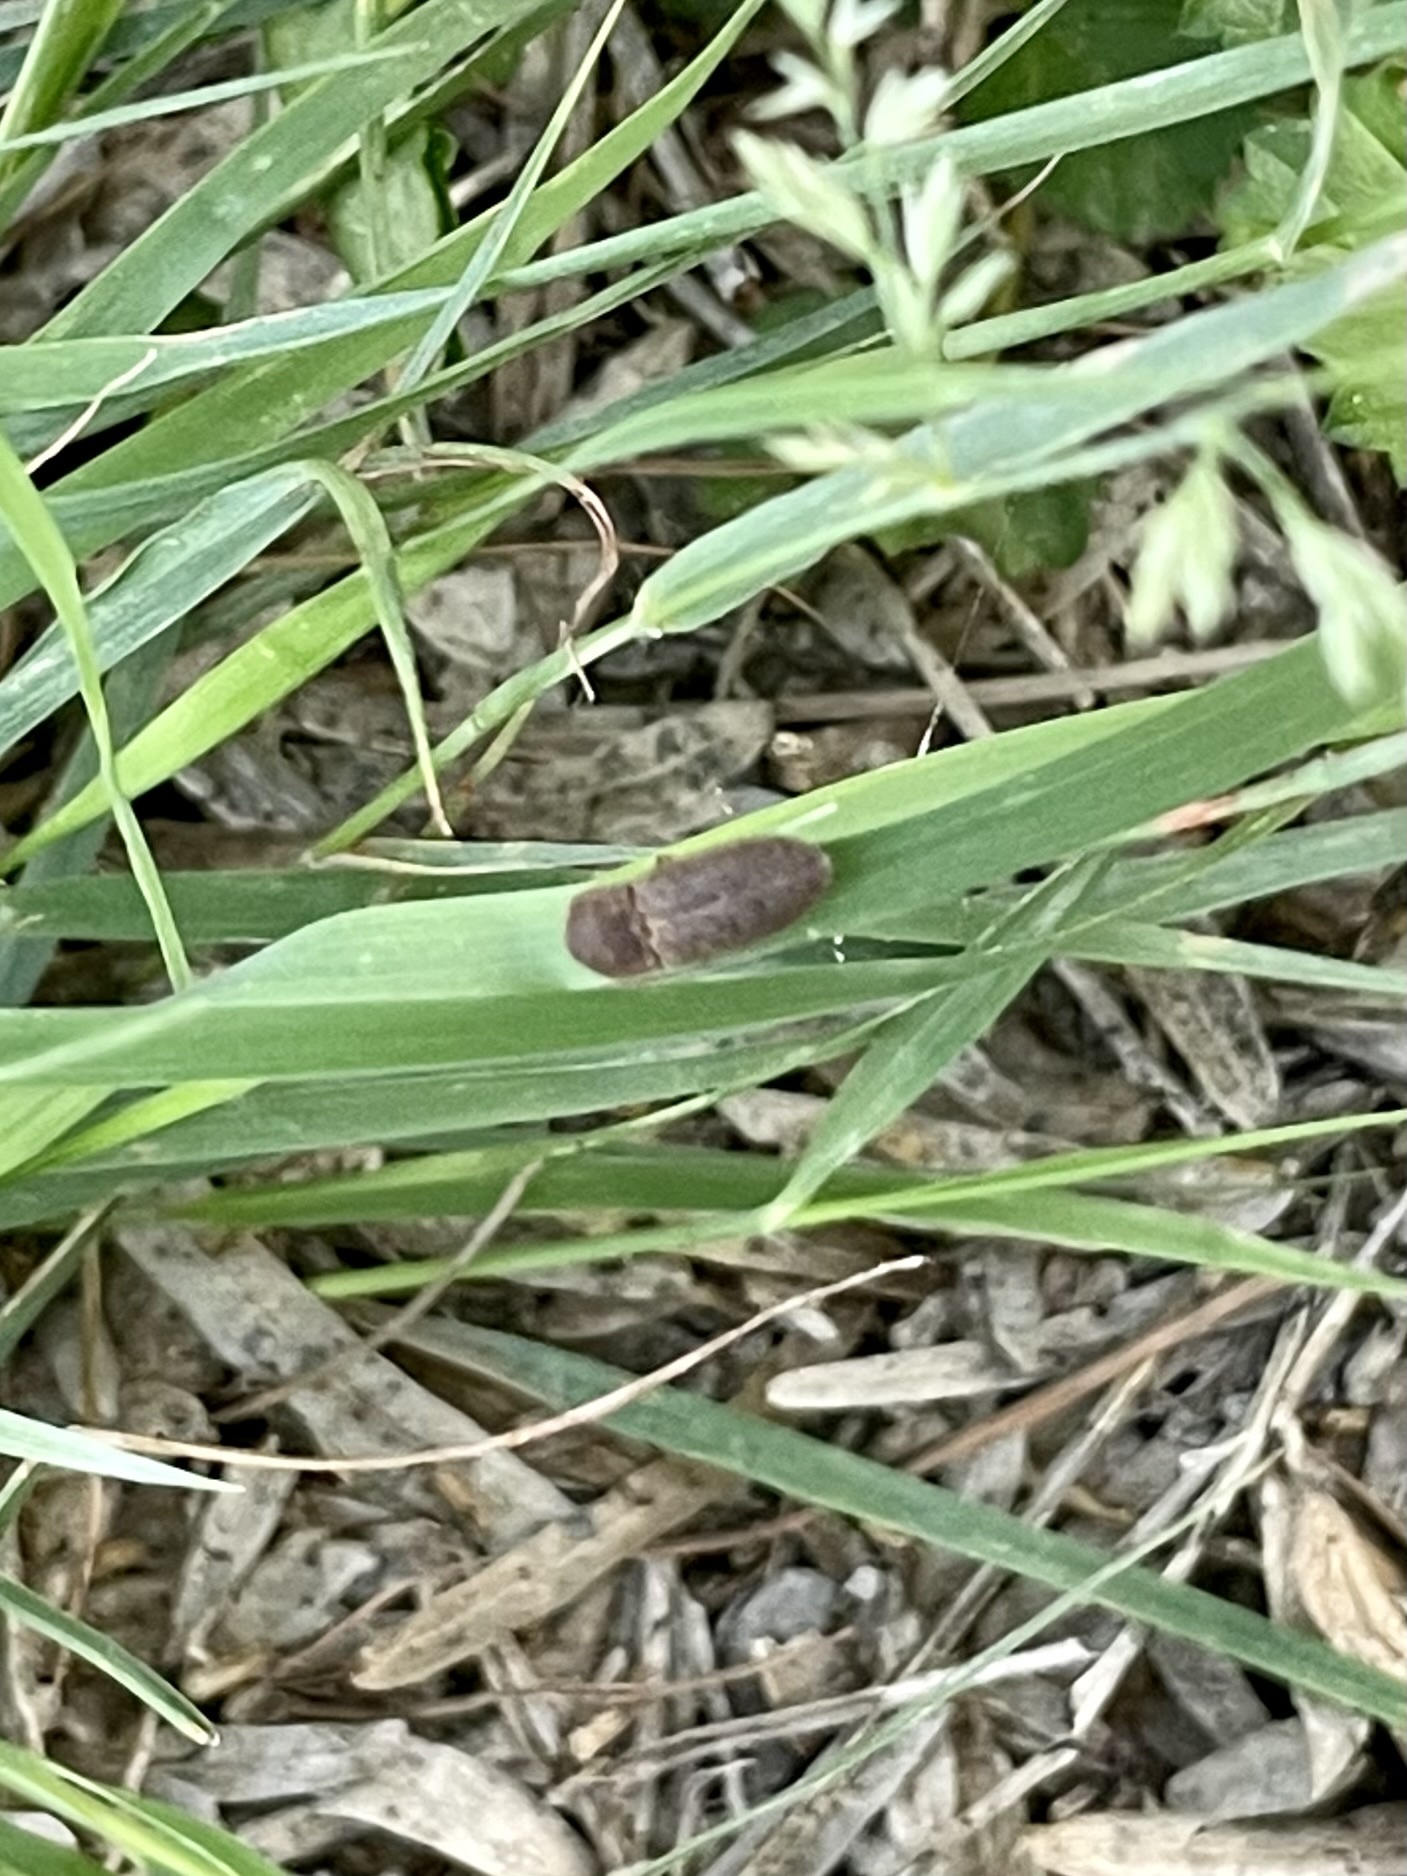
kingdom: Animalia
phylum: Arthropoda
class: Insecta
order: Coleoptera
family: Elateridae
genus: Agrypnus
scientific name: Agrypnus rectangularis
